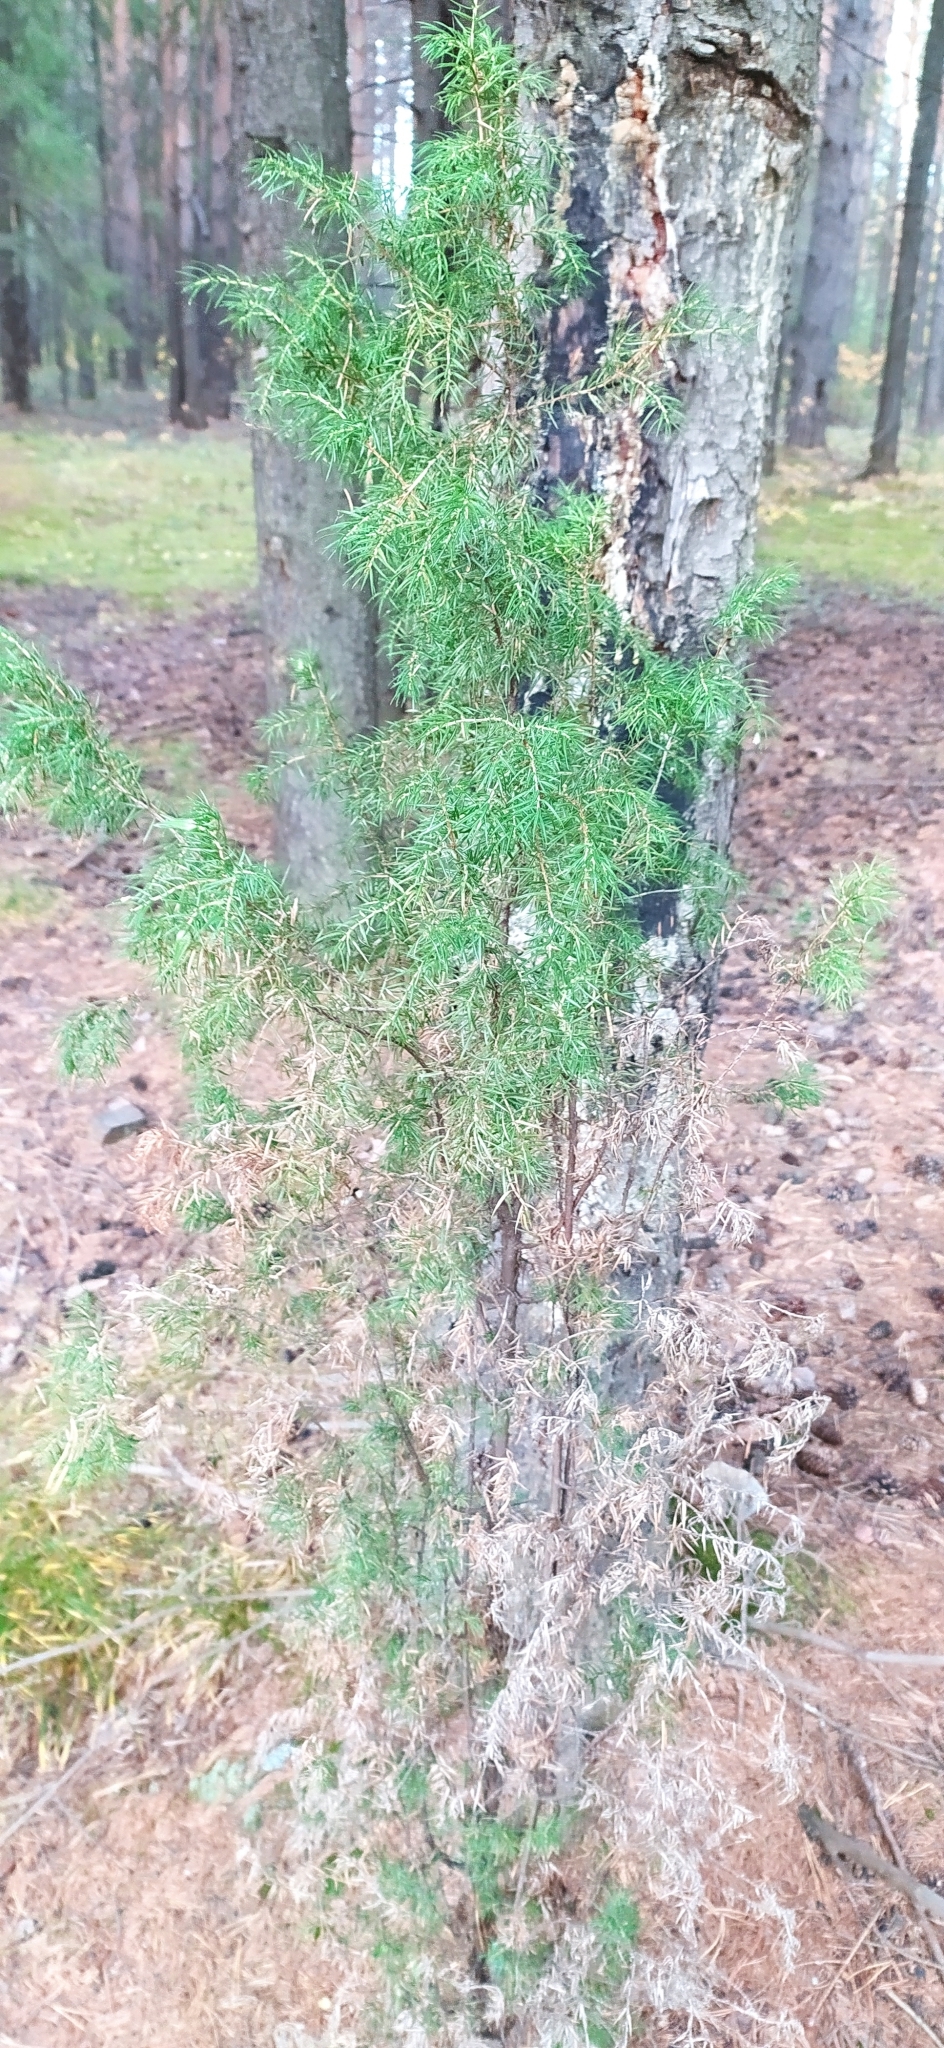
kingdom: Plantae
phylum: Tracheophyta
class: Pinopsida
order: Pinales
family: Cupressaceae
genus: Juniperus
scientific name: Juniperus communis
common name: Common juniper
